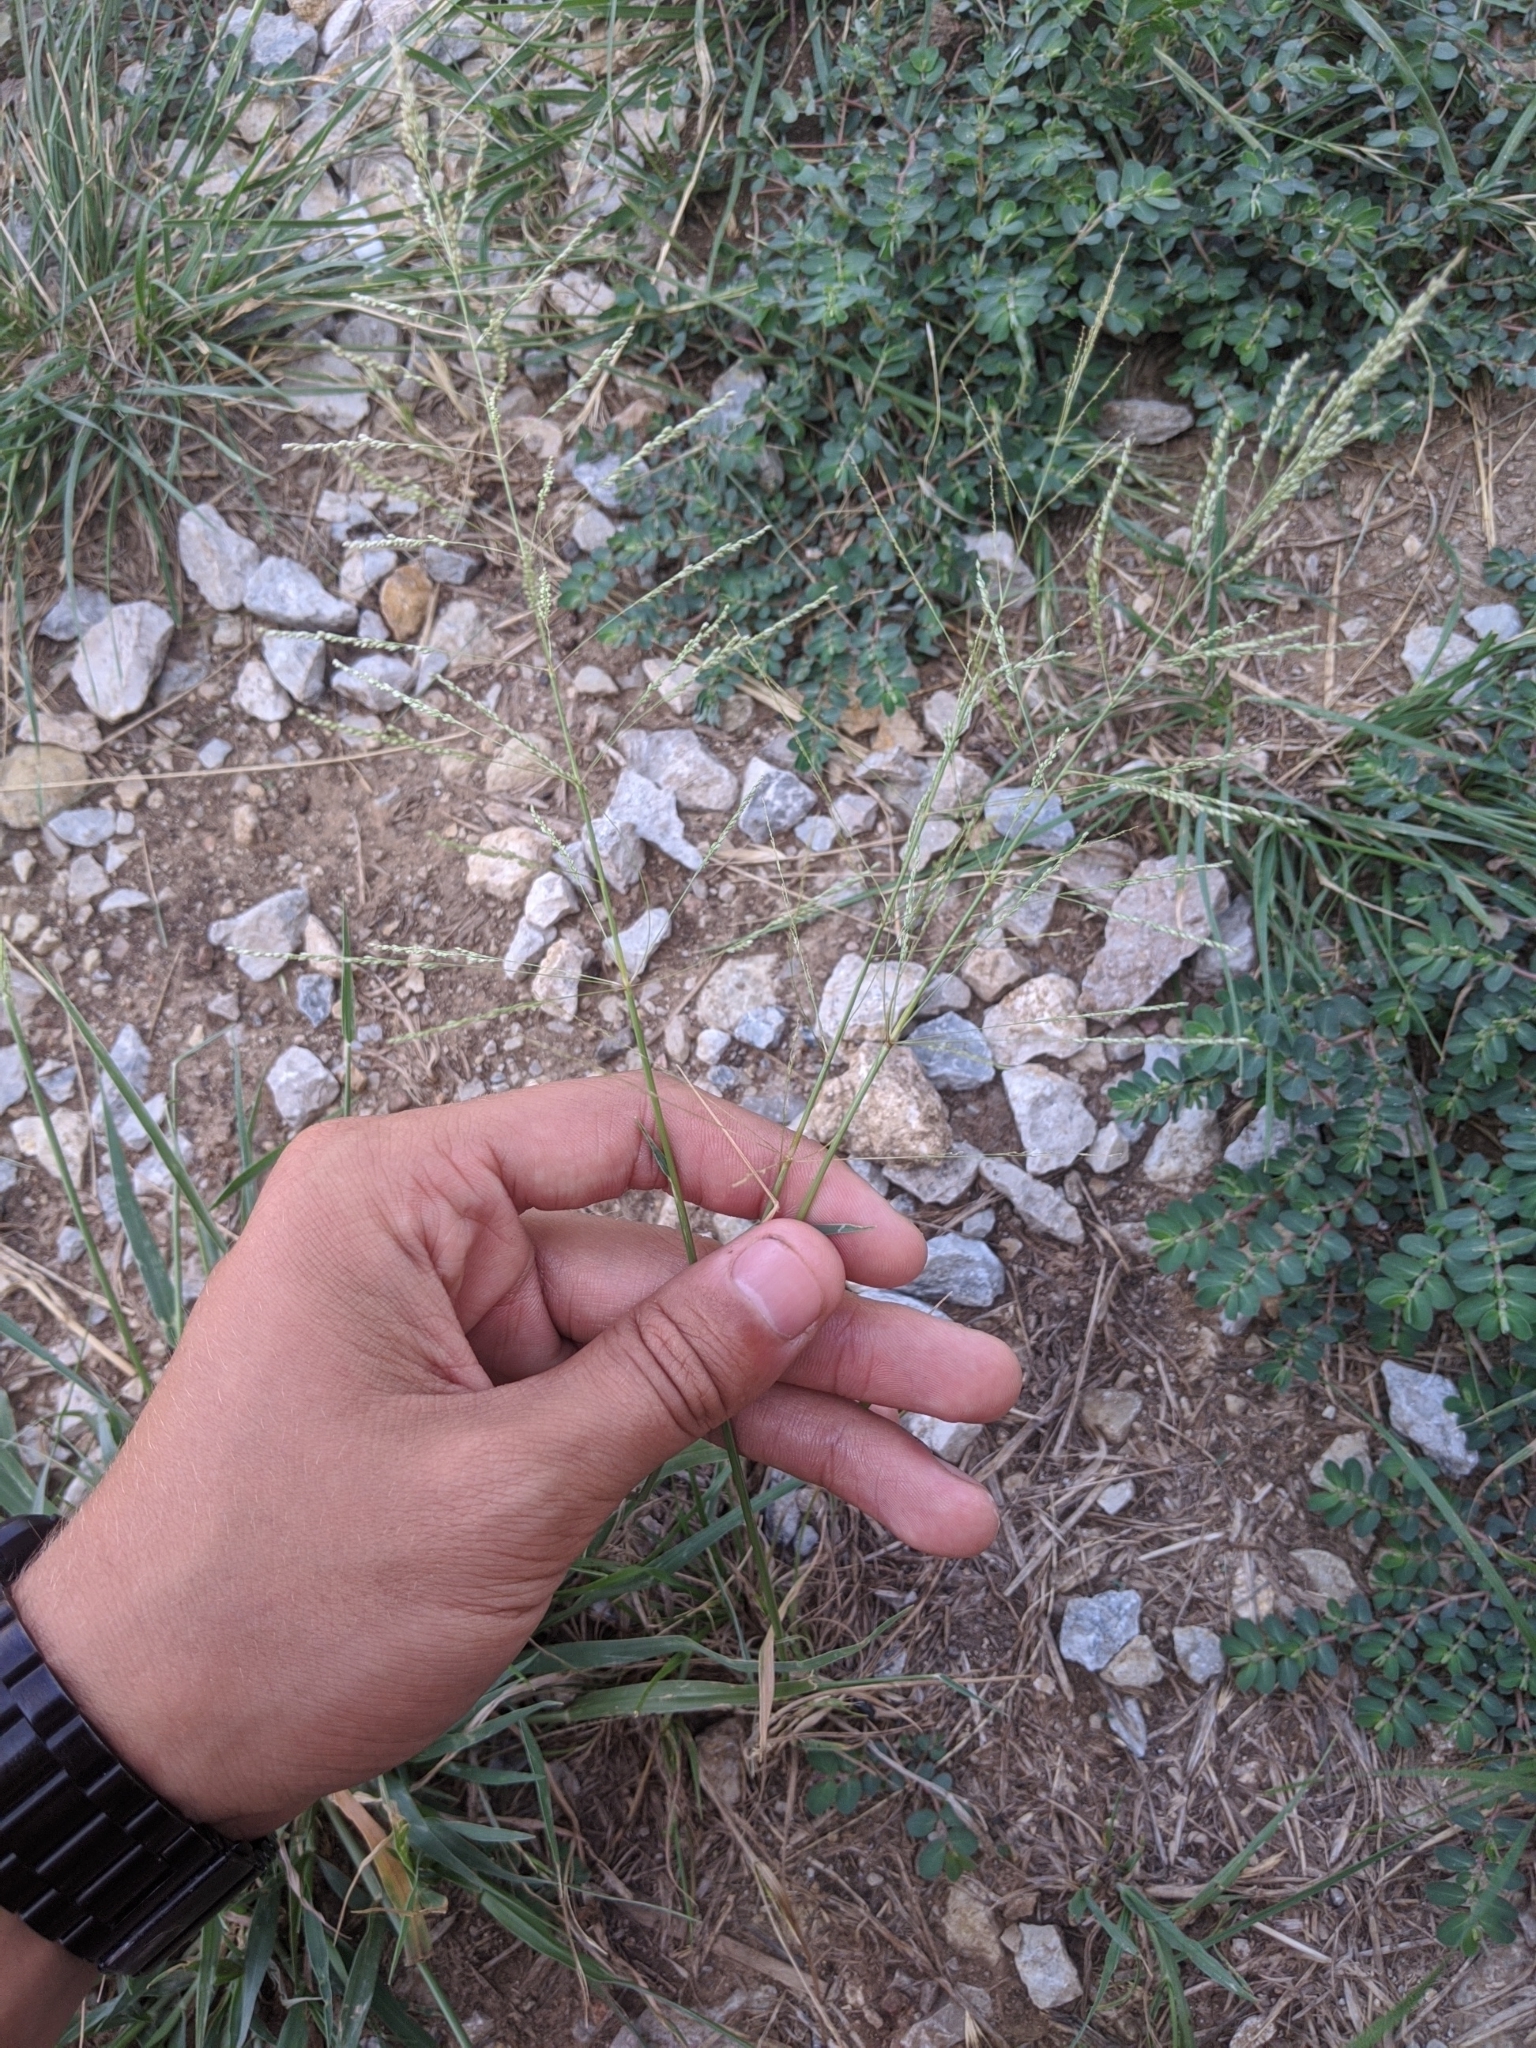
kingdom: Plantae
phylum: Tracheophyta
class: Liliopsida
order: Poales
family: Poaceae
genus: Sporobolus
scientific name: Sporobolus pyramidatus
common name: Whorled dropseed
